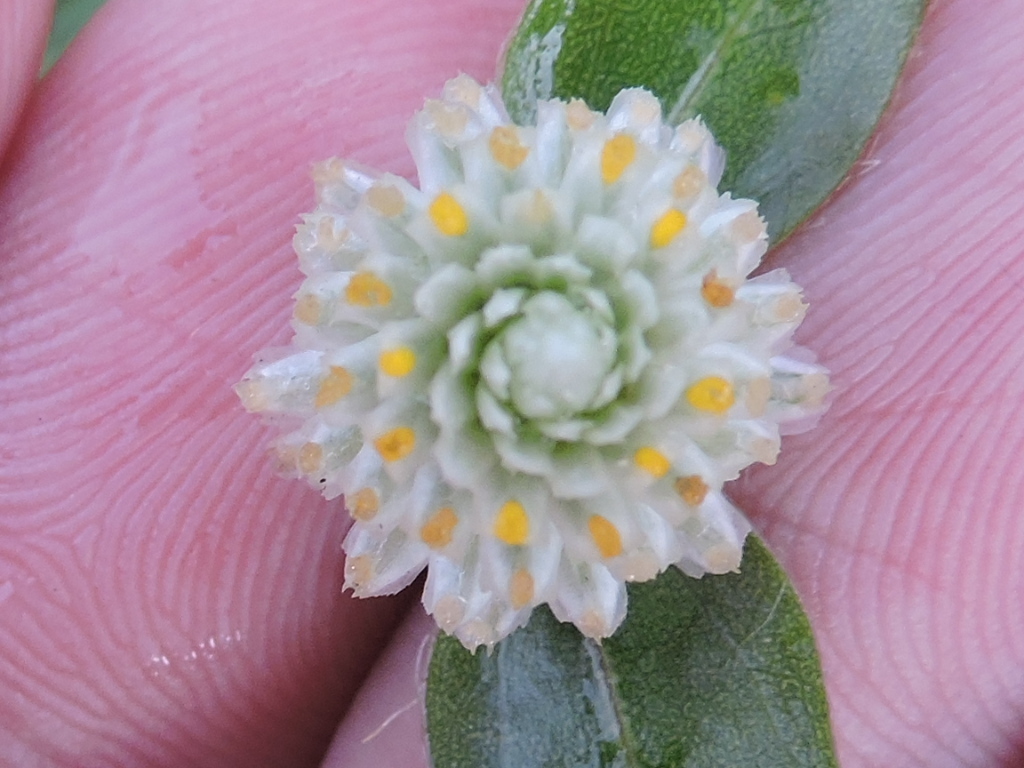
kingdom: Plantae
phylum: Tracheophyta
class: Magnoliopsida
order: Caryophyllales
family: Amaranthaceae
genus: Gomphrena
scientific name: Gomphrena serrata
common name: Arrasa con todo
